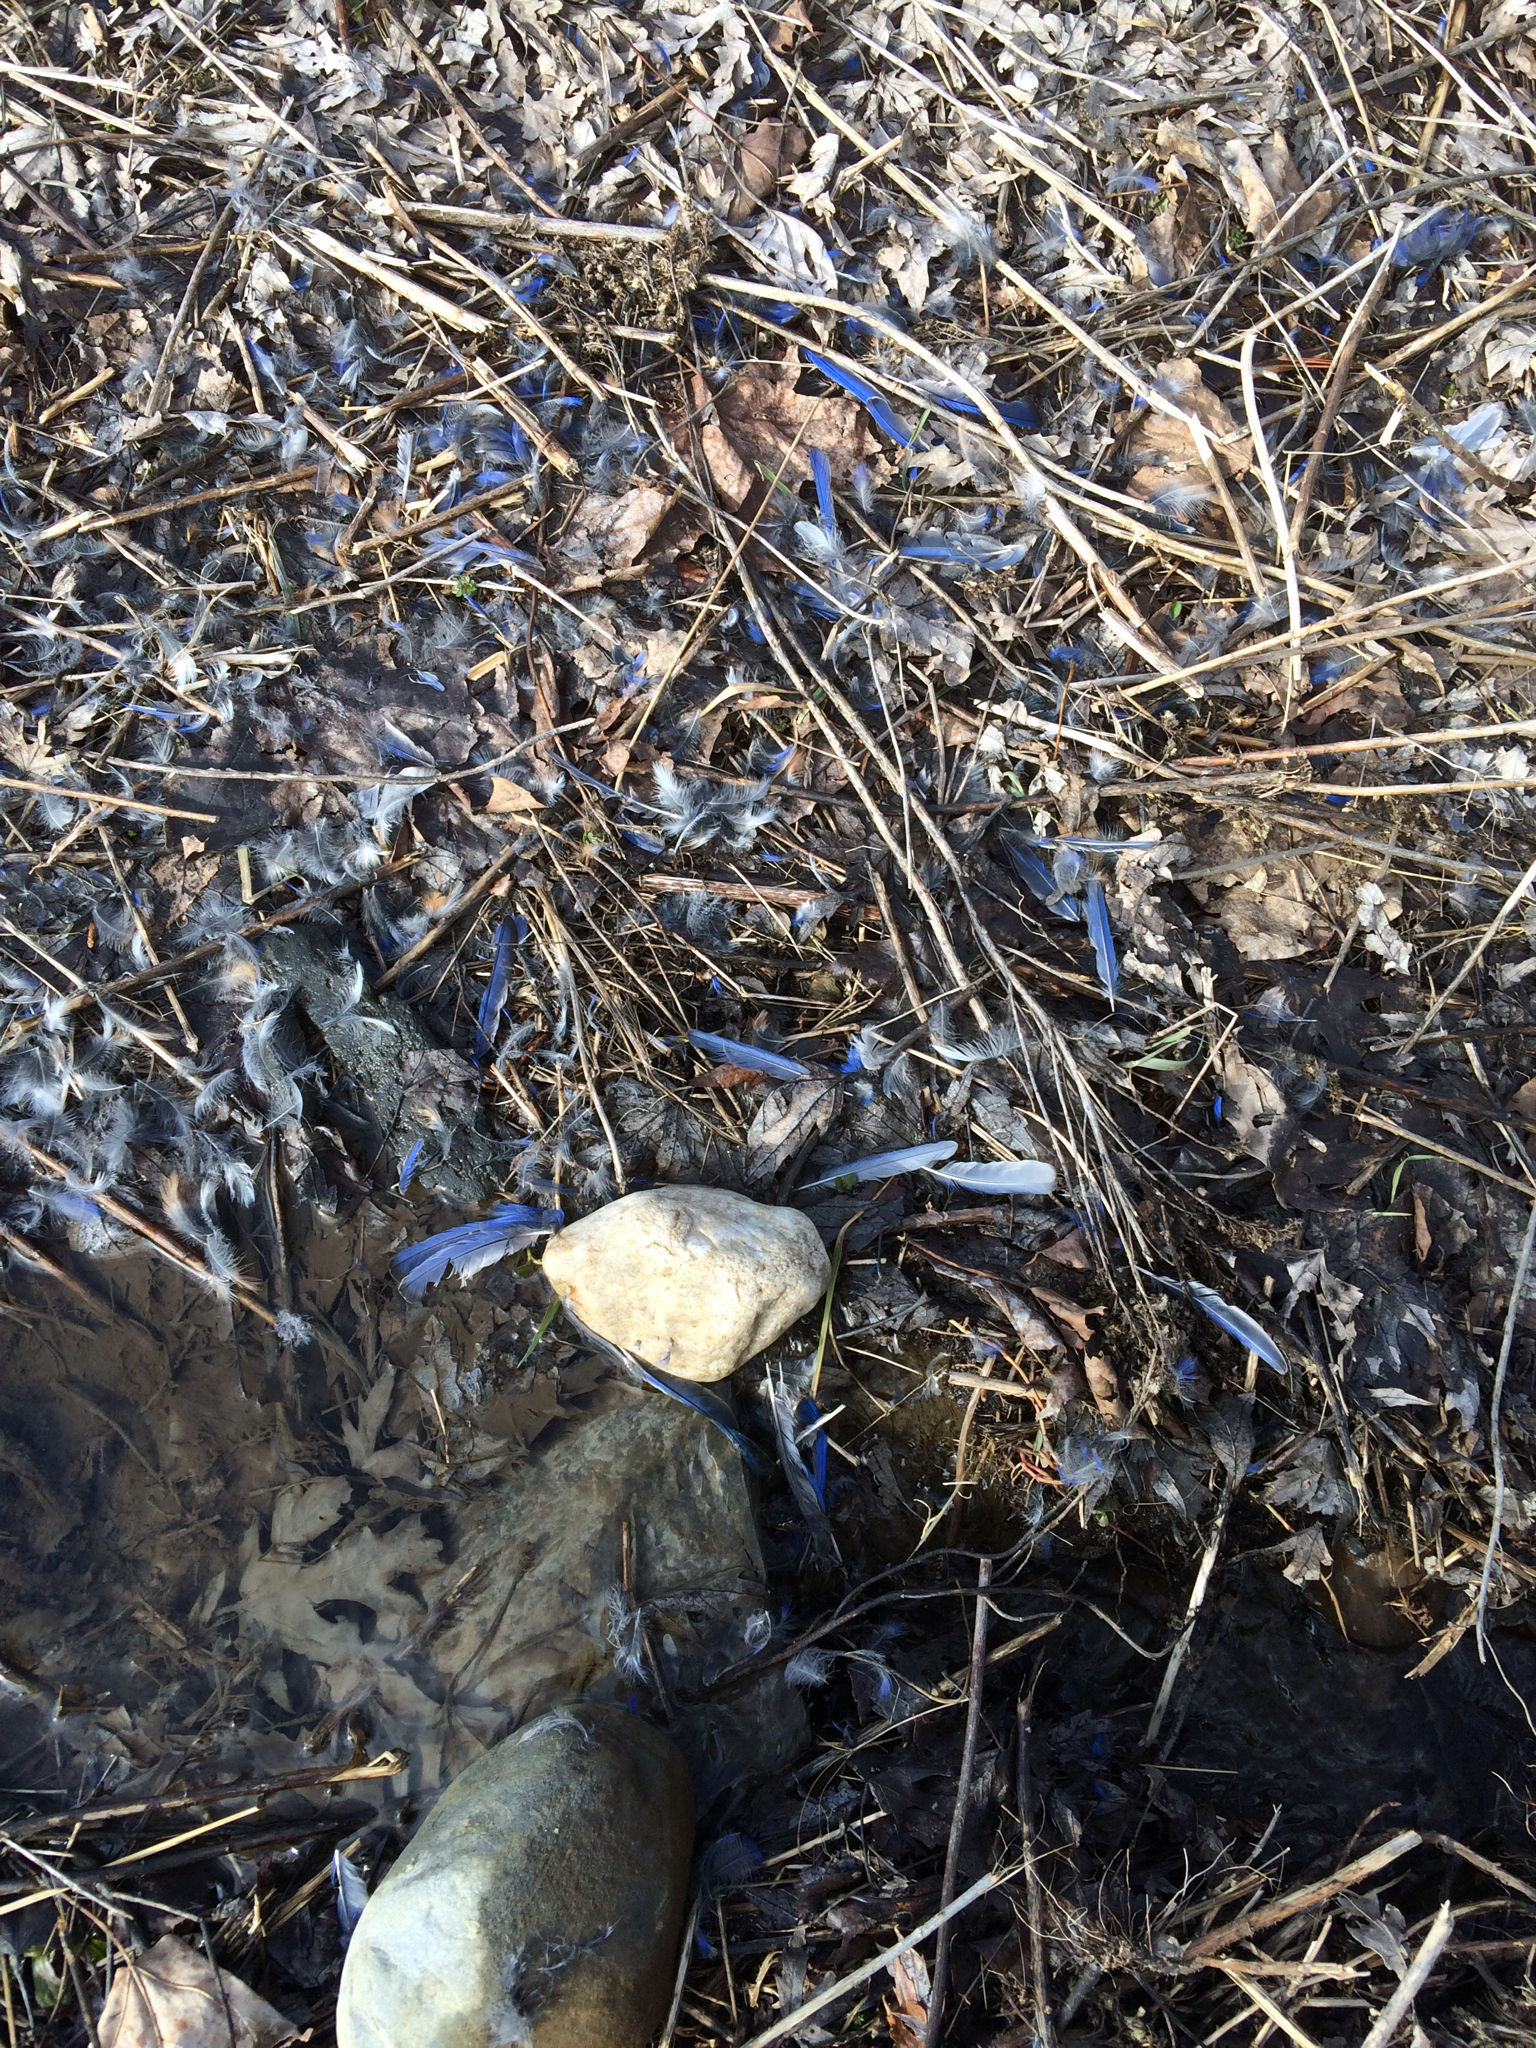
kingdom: Animalia
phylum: Chordata
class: Aves
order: Passeriformes
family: Turdidae
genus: Sialia
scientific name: Sialia sialis
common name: Eastern bluebird
